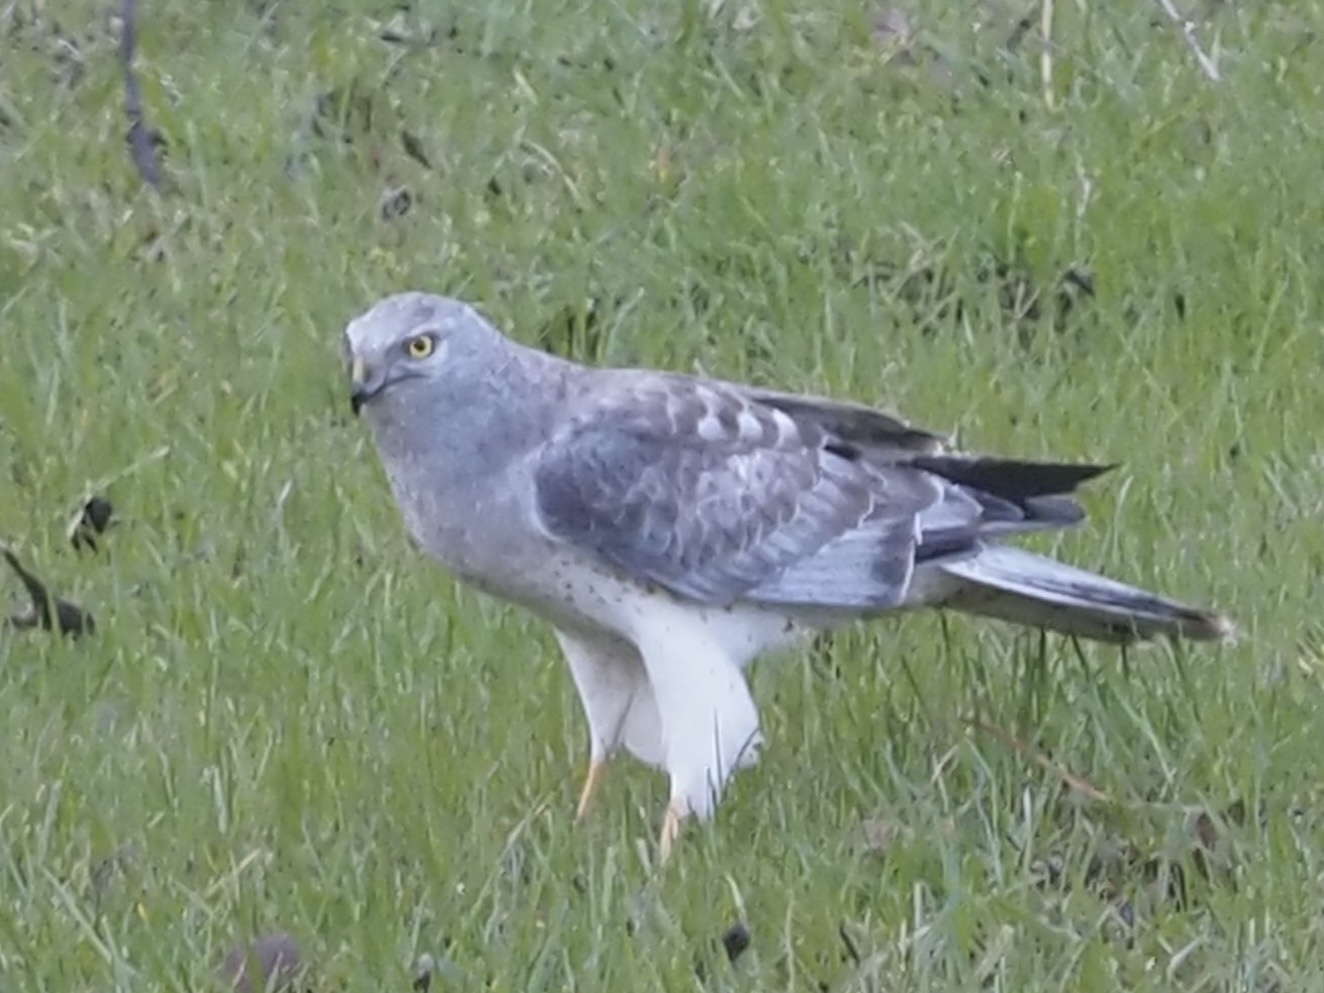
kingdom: Animalia
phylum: Chordata
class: Aves
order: Accipitriformes
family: Accipitridae
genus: Circus
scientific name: Circus cyaneus
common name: Hen harrier
